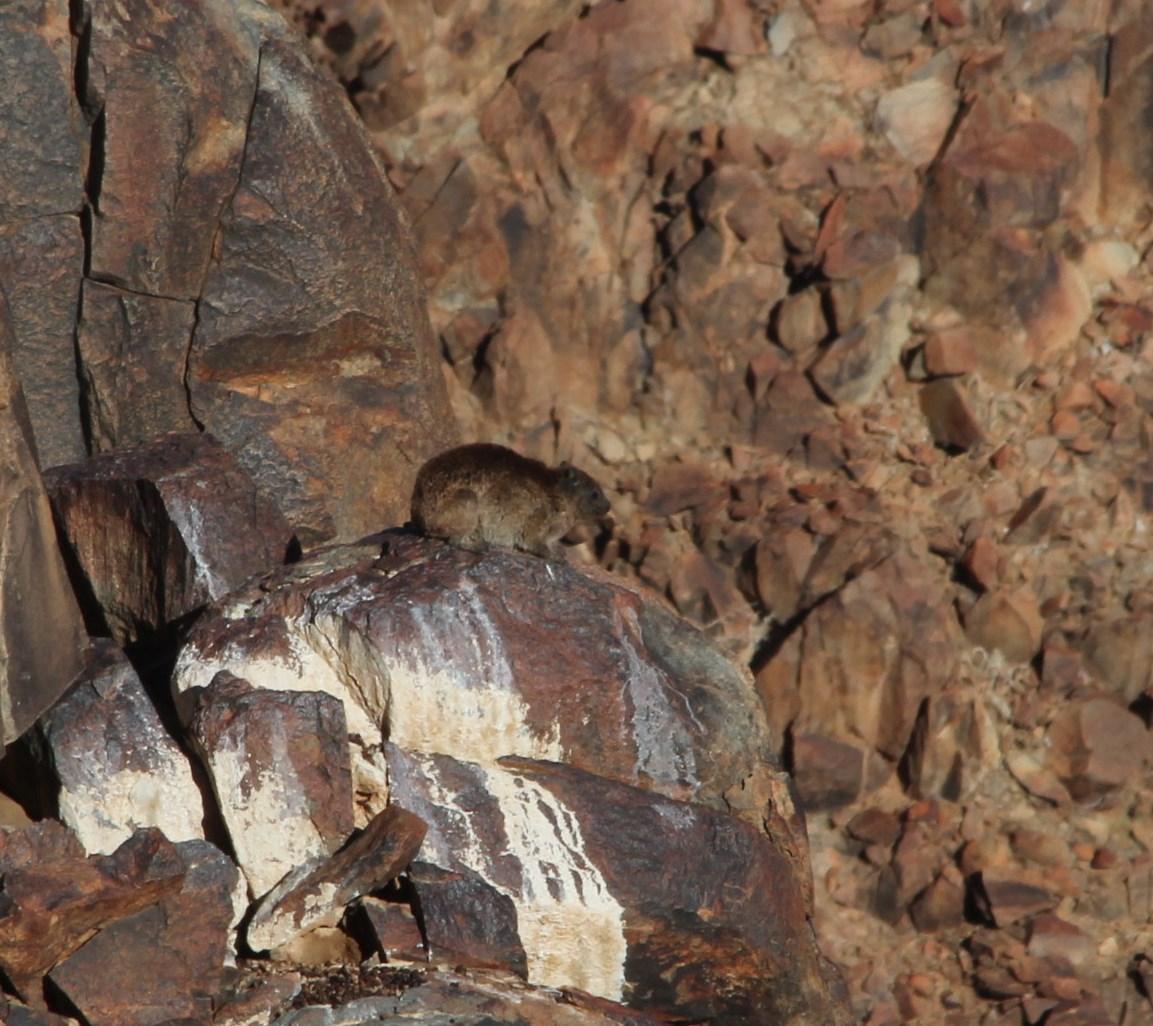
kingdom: Animalia
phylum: Chordata
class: Mammalia
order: Hyracoidea
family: Procaviidae
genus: Procavia
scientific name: Procavia capensis
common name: Rock hyrax
